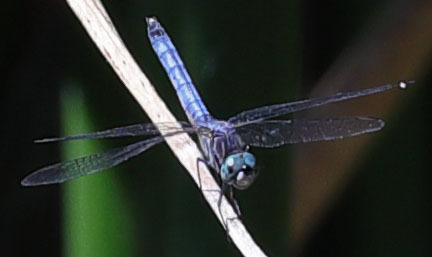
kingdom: Animalia
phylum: Arthropoda
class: Insecta
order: Odonata
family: Libellulidae
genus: Pachydiplax
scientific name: Pachydiplax longipennis
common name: Blue dasher
